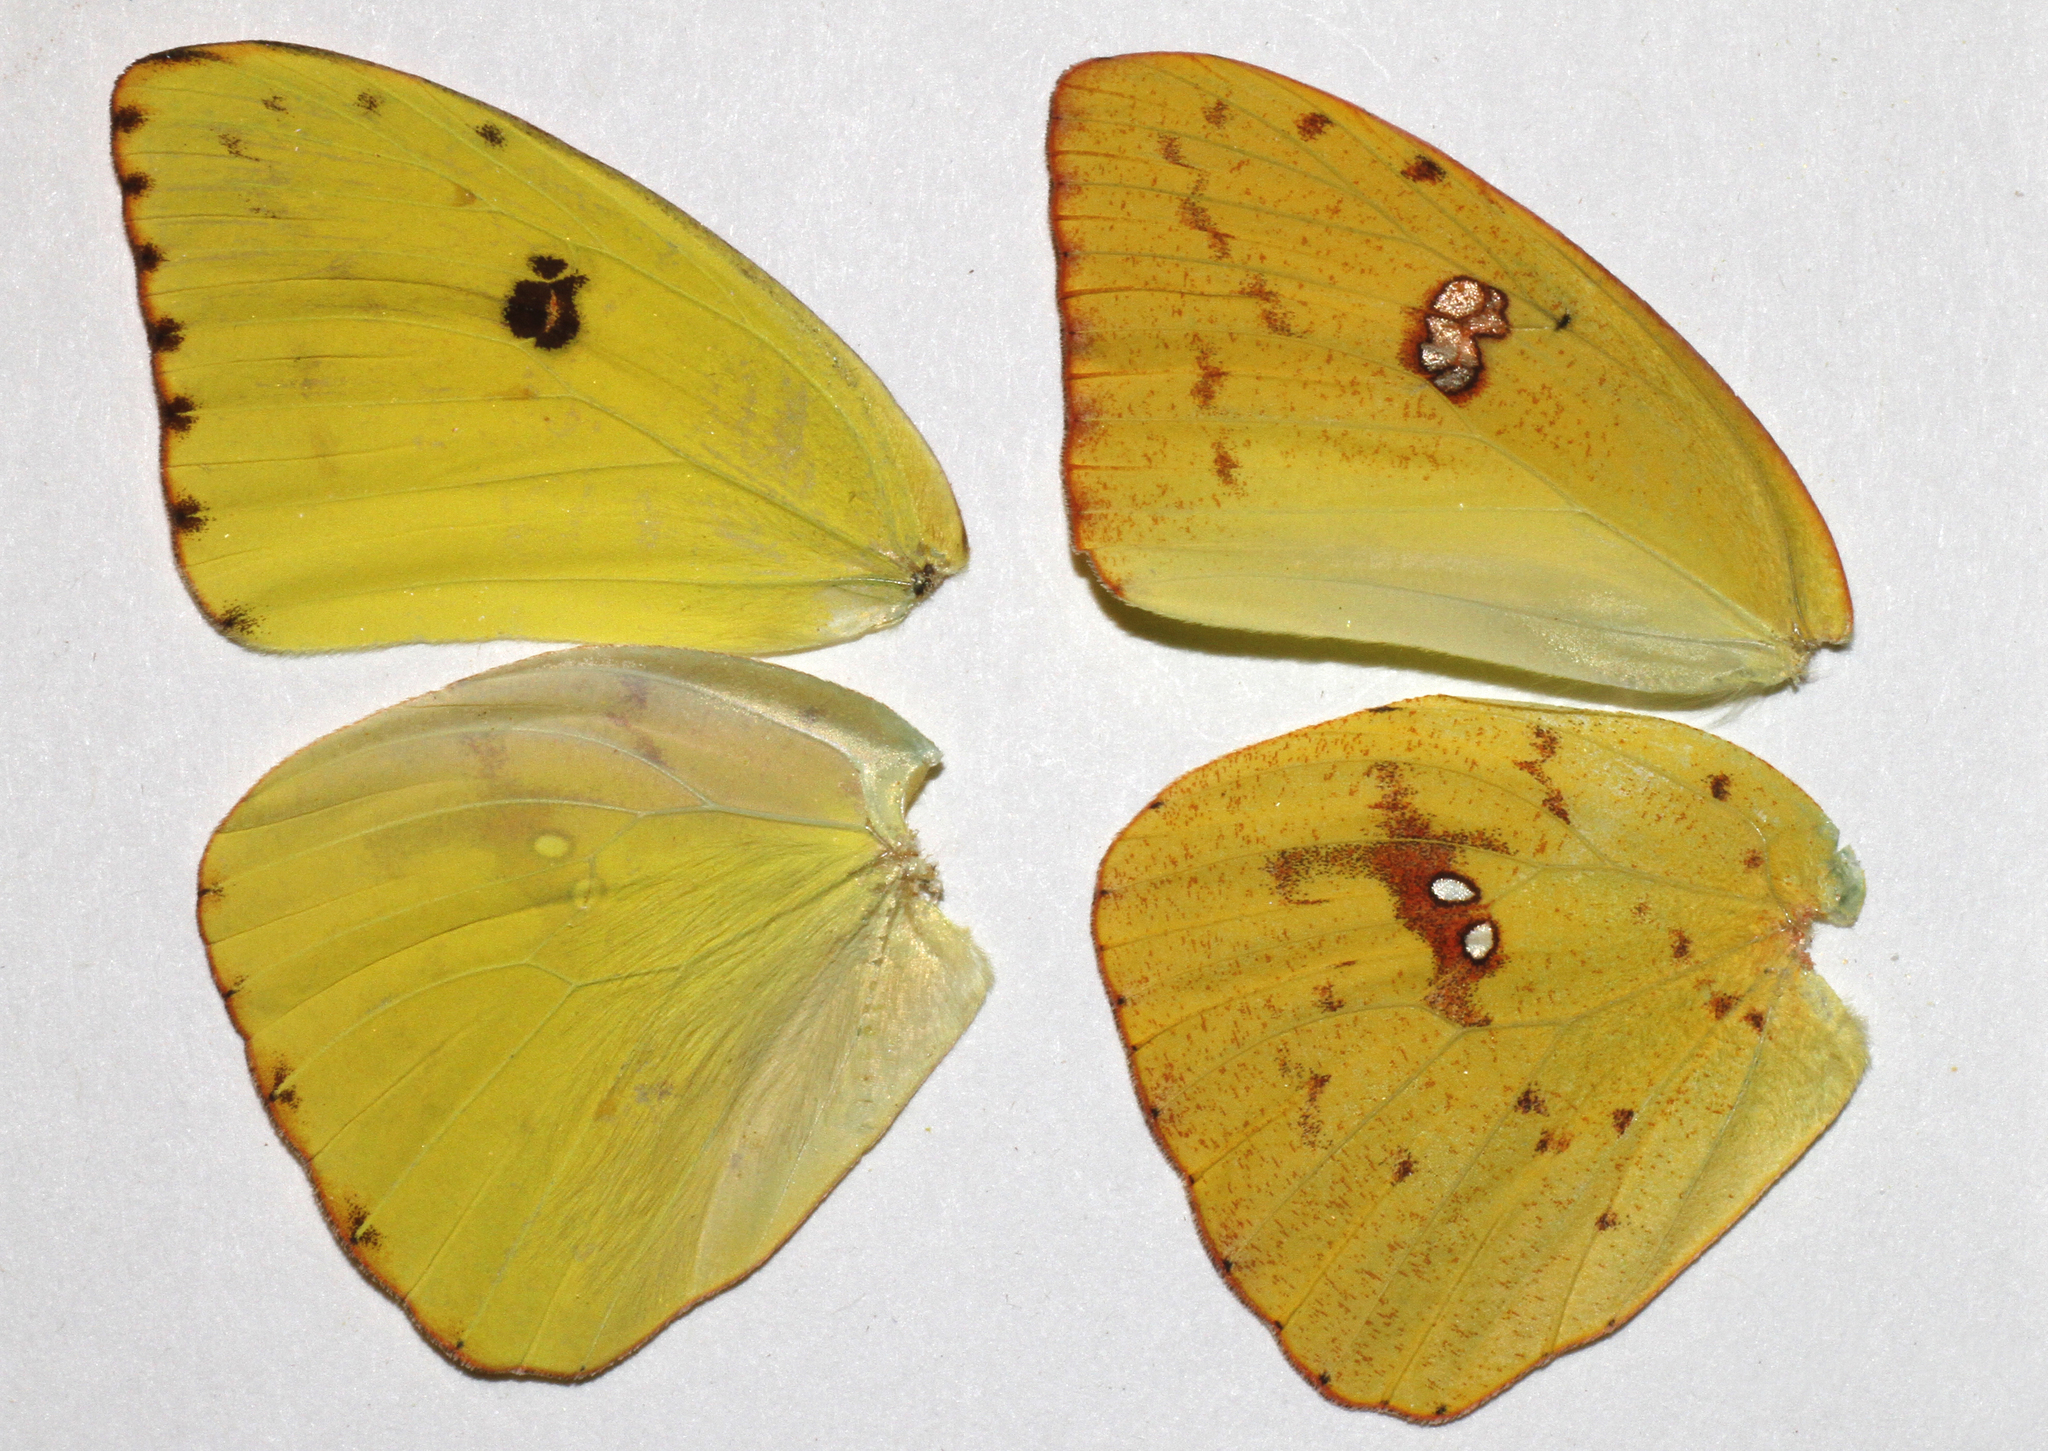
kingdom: Animalia
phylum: Arthropoda
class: Insecta
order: Lepidoptera
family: Pieridae
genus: Phoebis
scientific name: Phoebis sennae
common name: Cloudless sulphur
